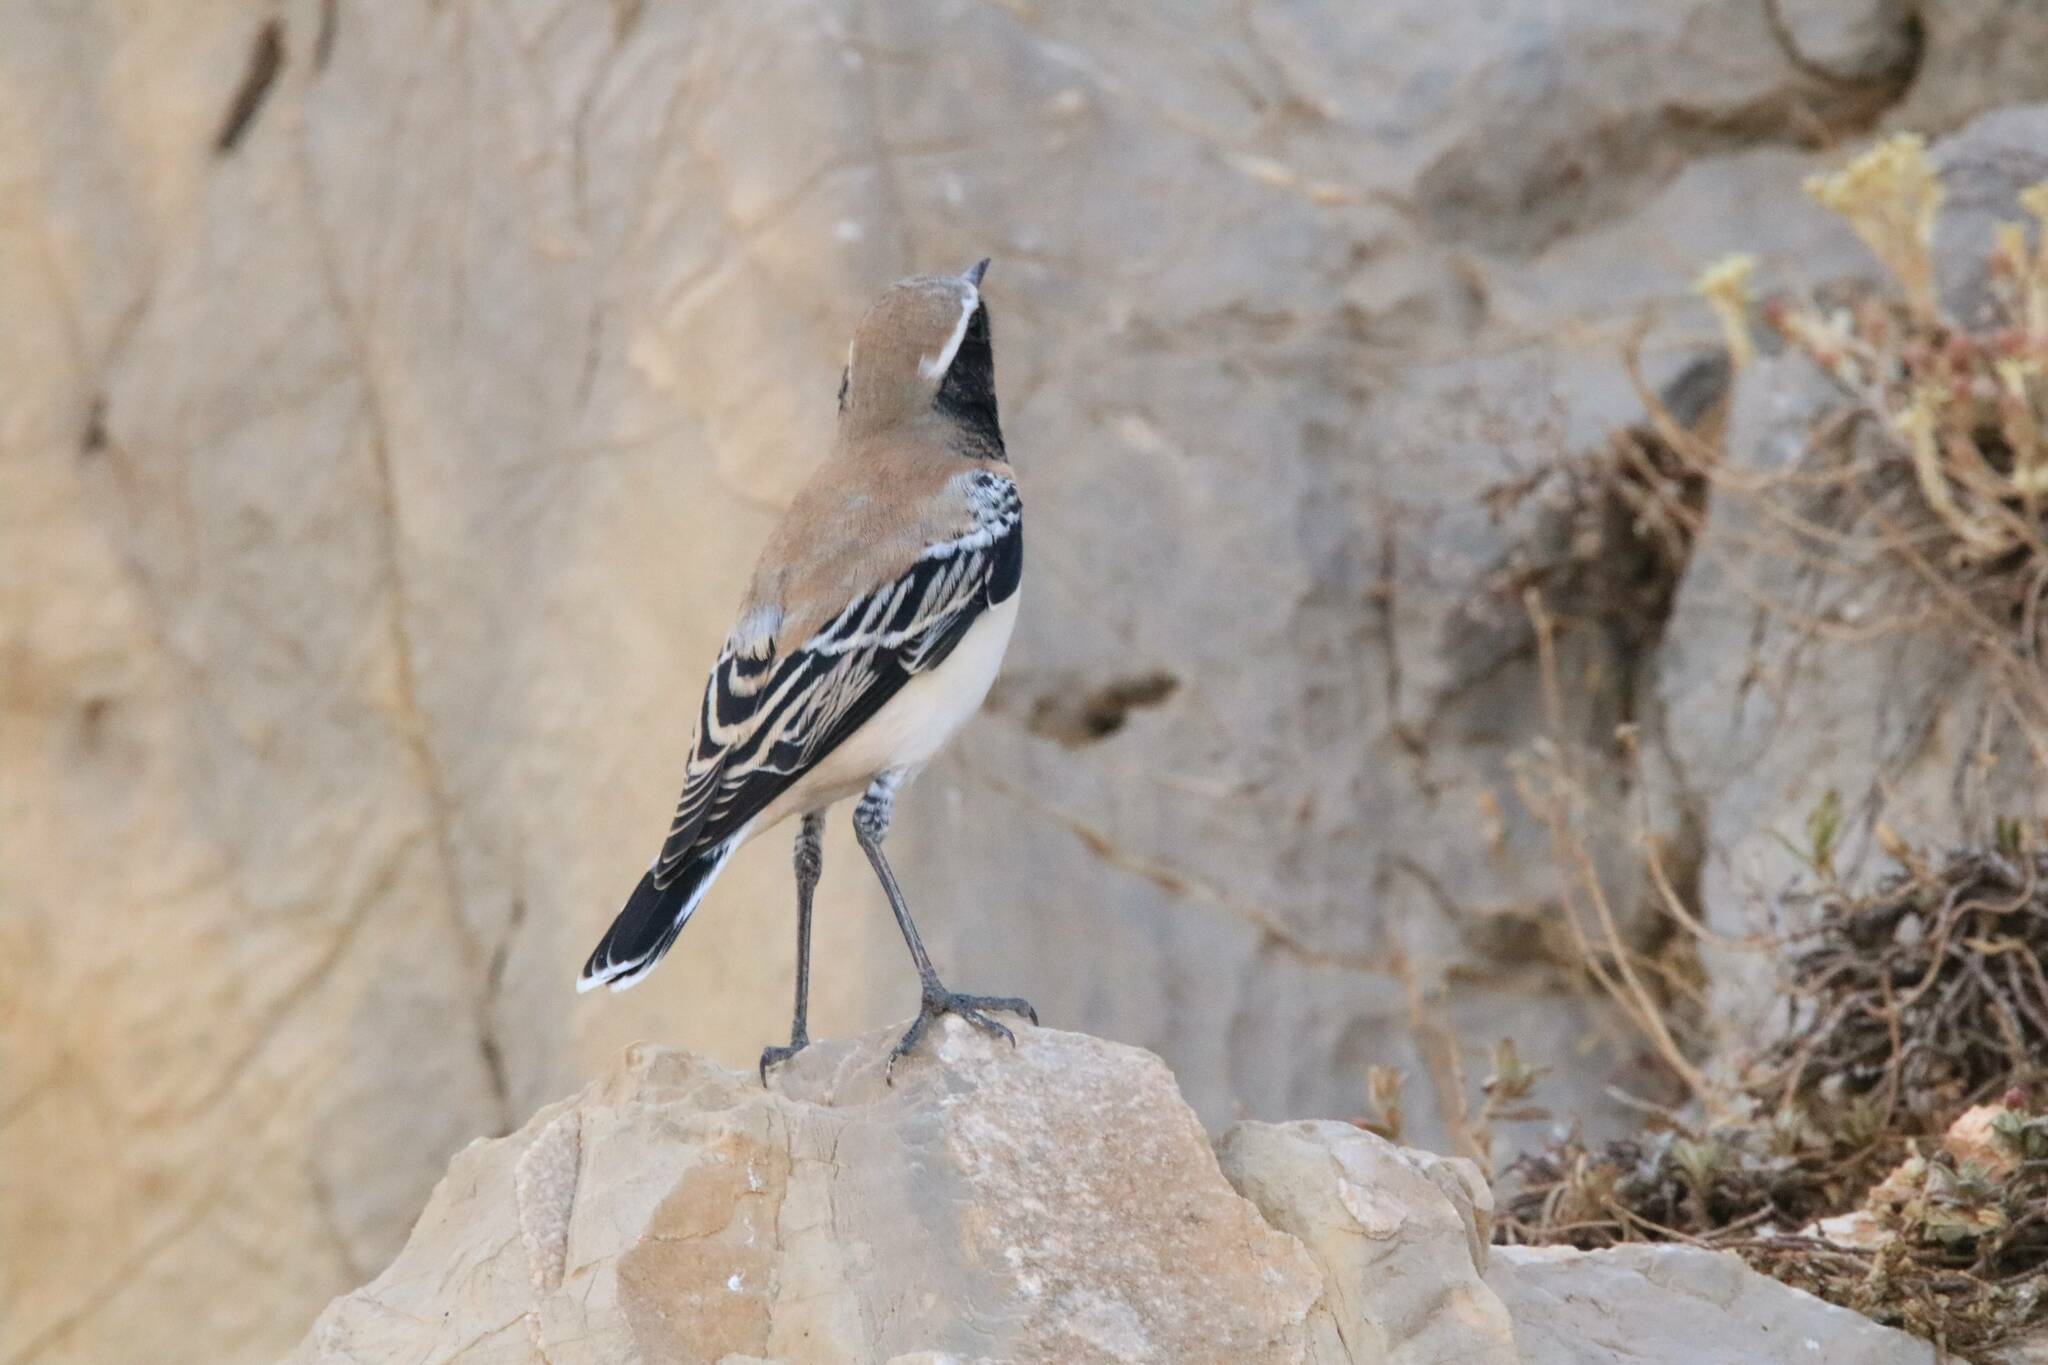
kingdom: Animalia
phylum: Chordata
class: Aves
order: Passeriformes
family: Muscicapidae
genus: Oenanthe
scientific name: Oenanthe deserti
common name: Desert wheatear
